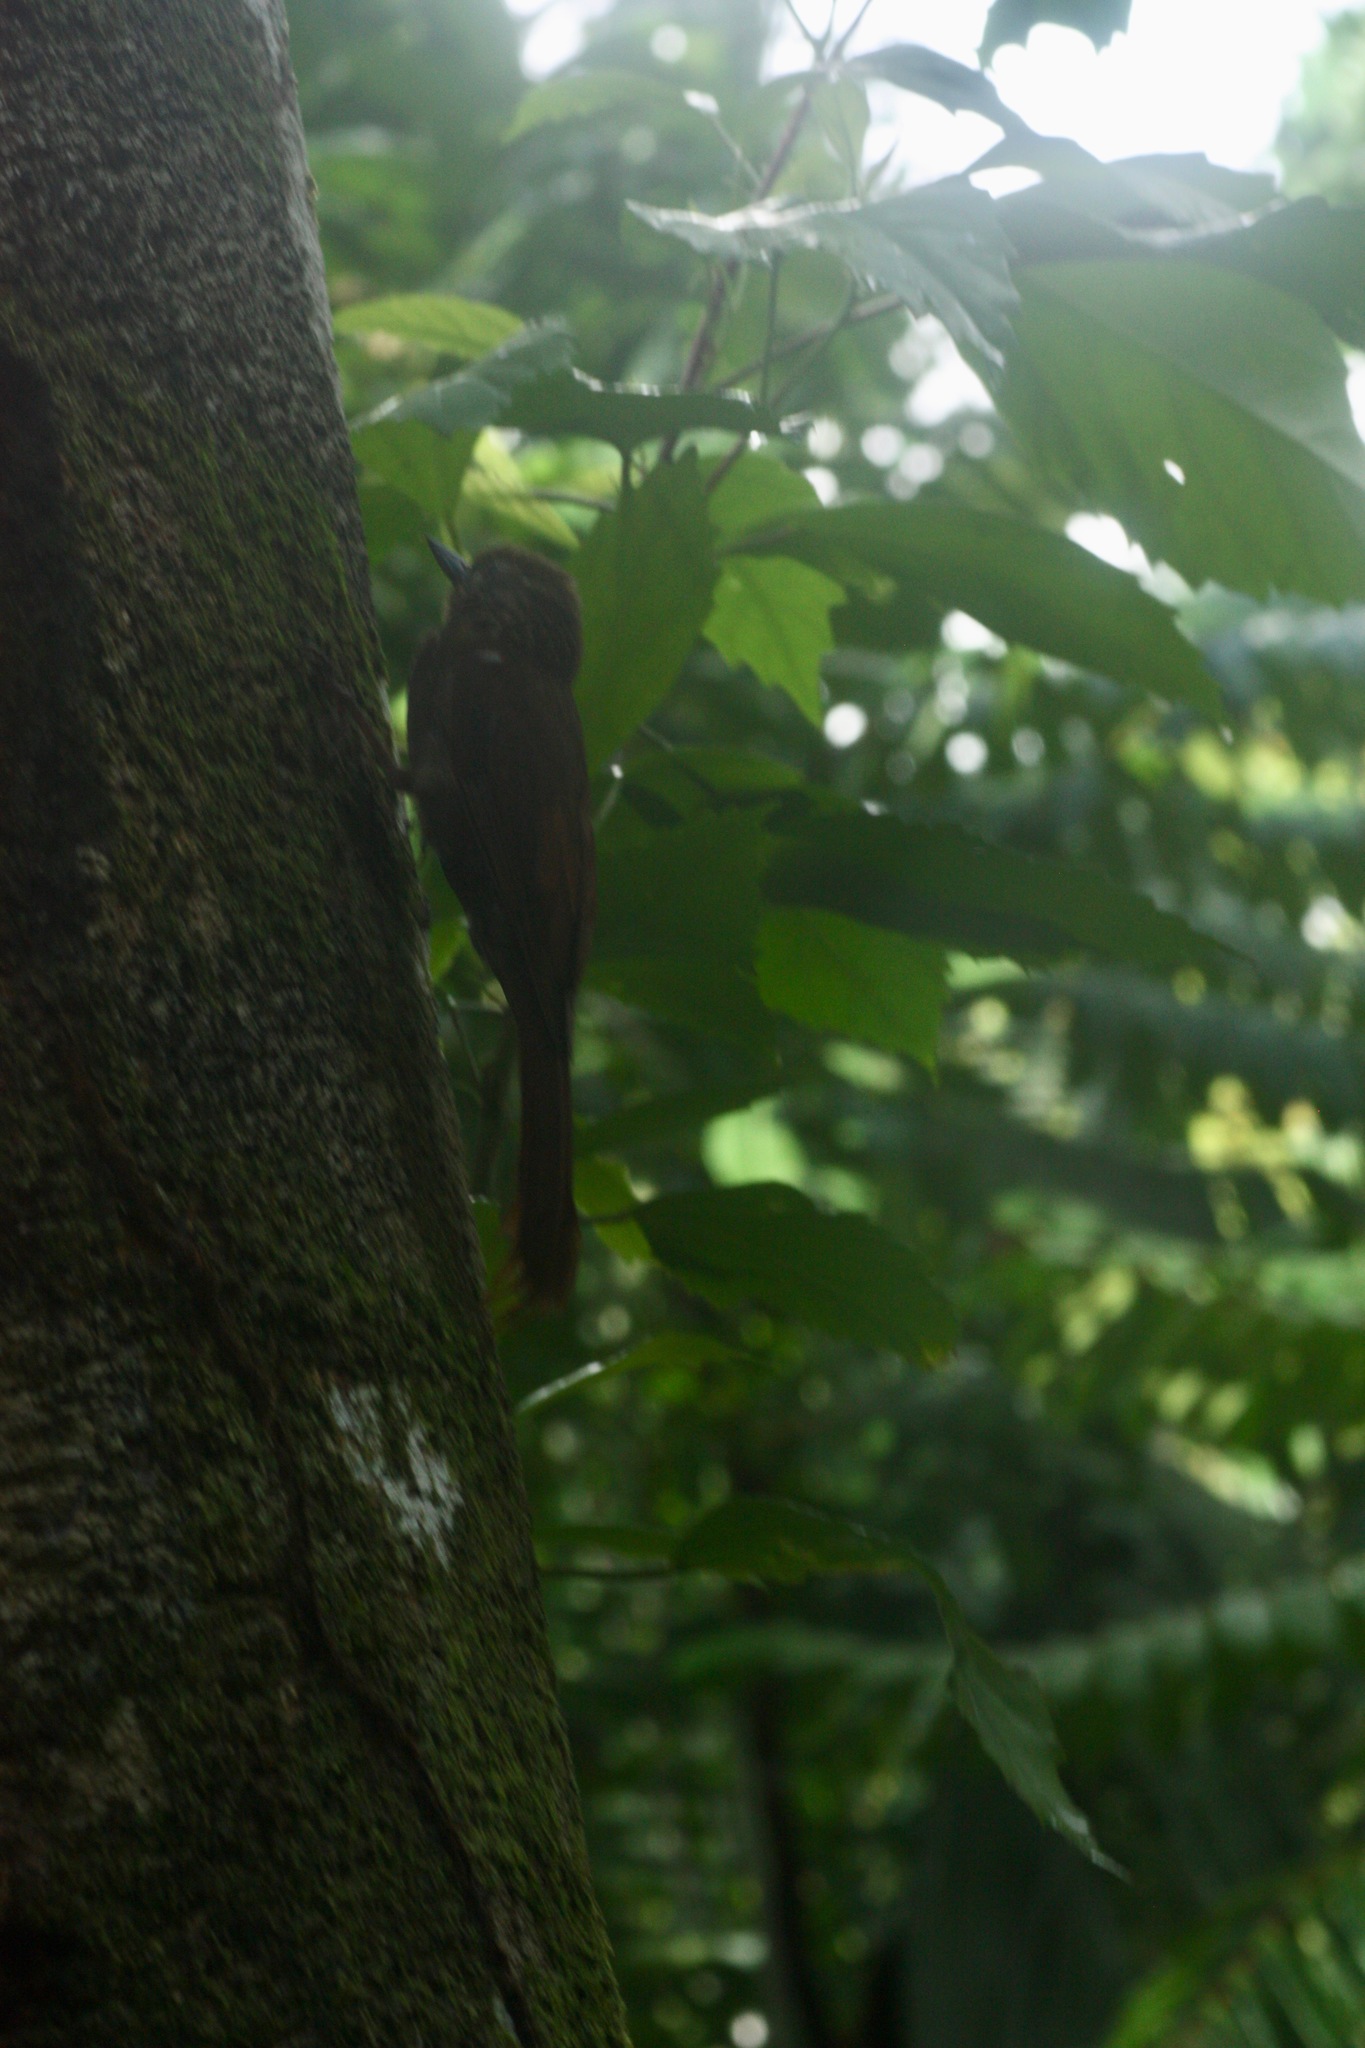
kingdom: Animalia
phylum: Chordata
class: Aves
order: Passeriformes
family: Furnariidae
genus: Glyphorynchus
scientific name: Glyphorynchus spirurus
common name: Wedge-billed woodcreeper
